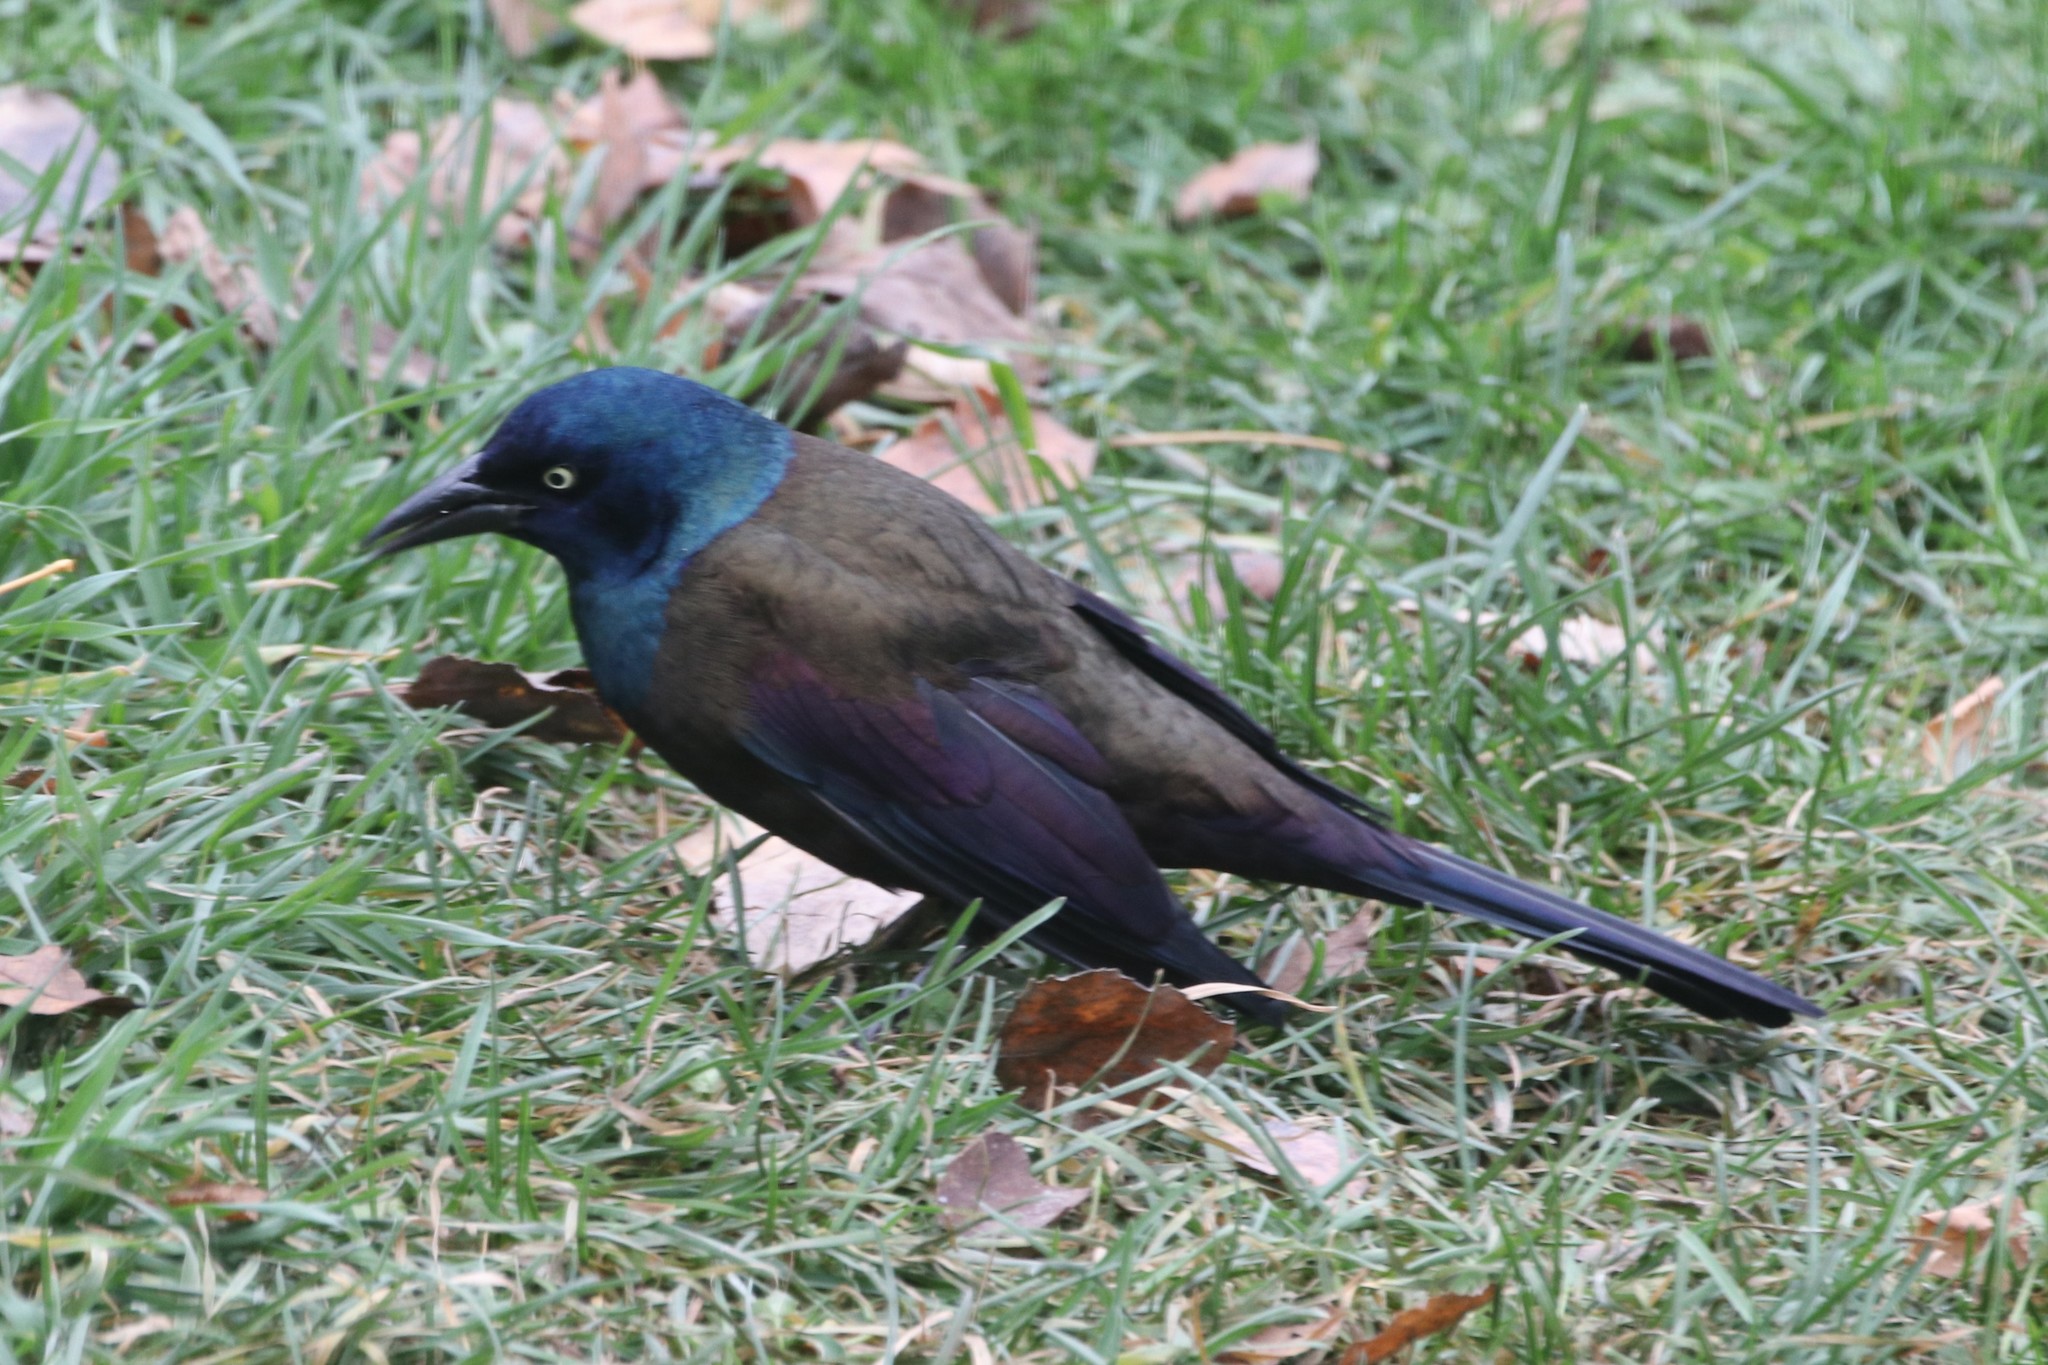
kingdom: Animalia
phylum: Chordata
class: Aves
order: Passeriformes
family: Icteridae
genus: Quiscalus
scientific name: Quiscalus quiscula
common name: Common grackle
